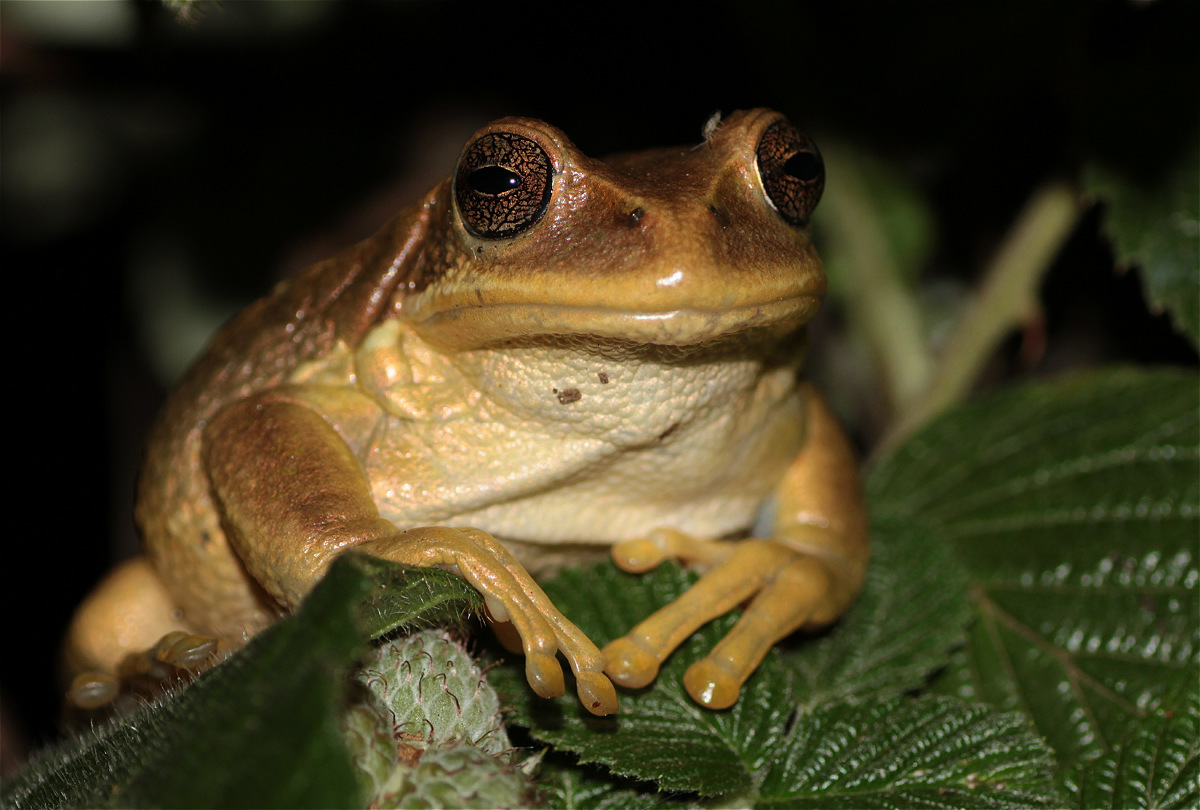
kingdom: Animalia
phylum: Chordata
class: Amphibia
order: Anura
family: Hemiphractidae
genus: Gastrotheca
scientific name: Gastrotheca cuencana
